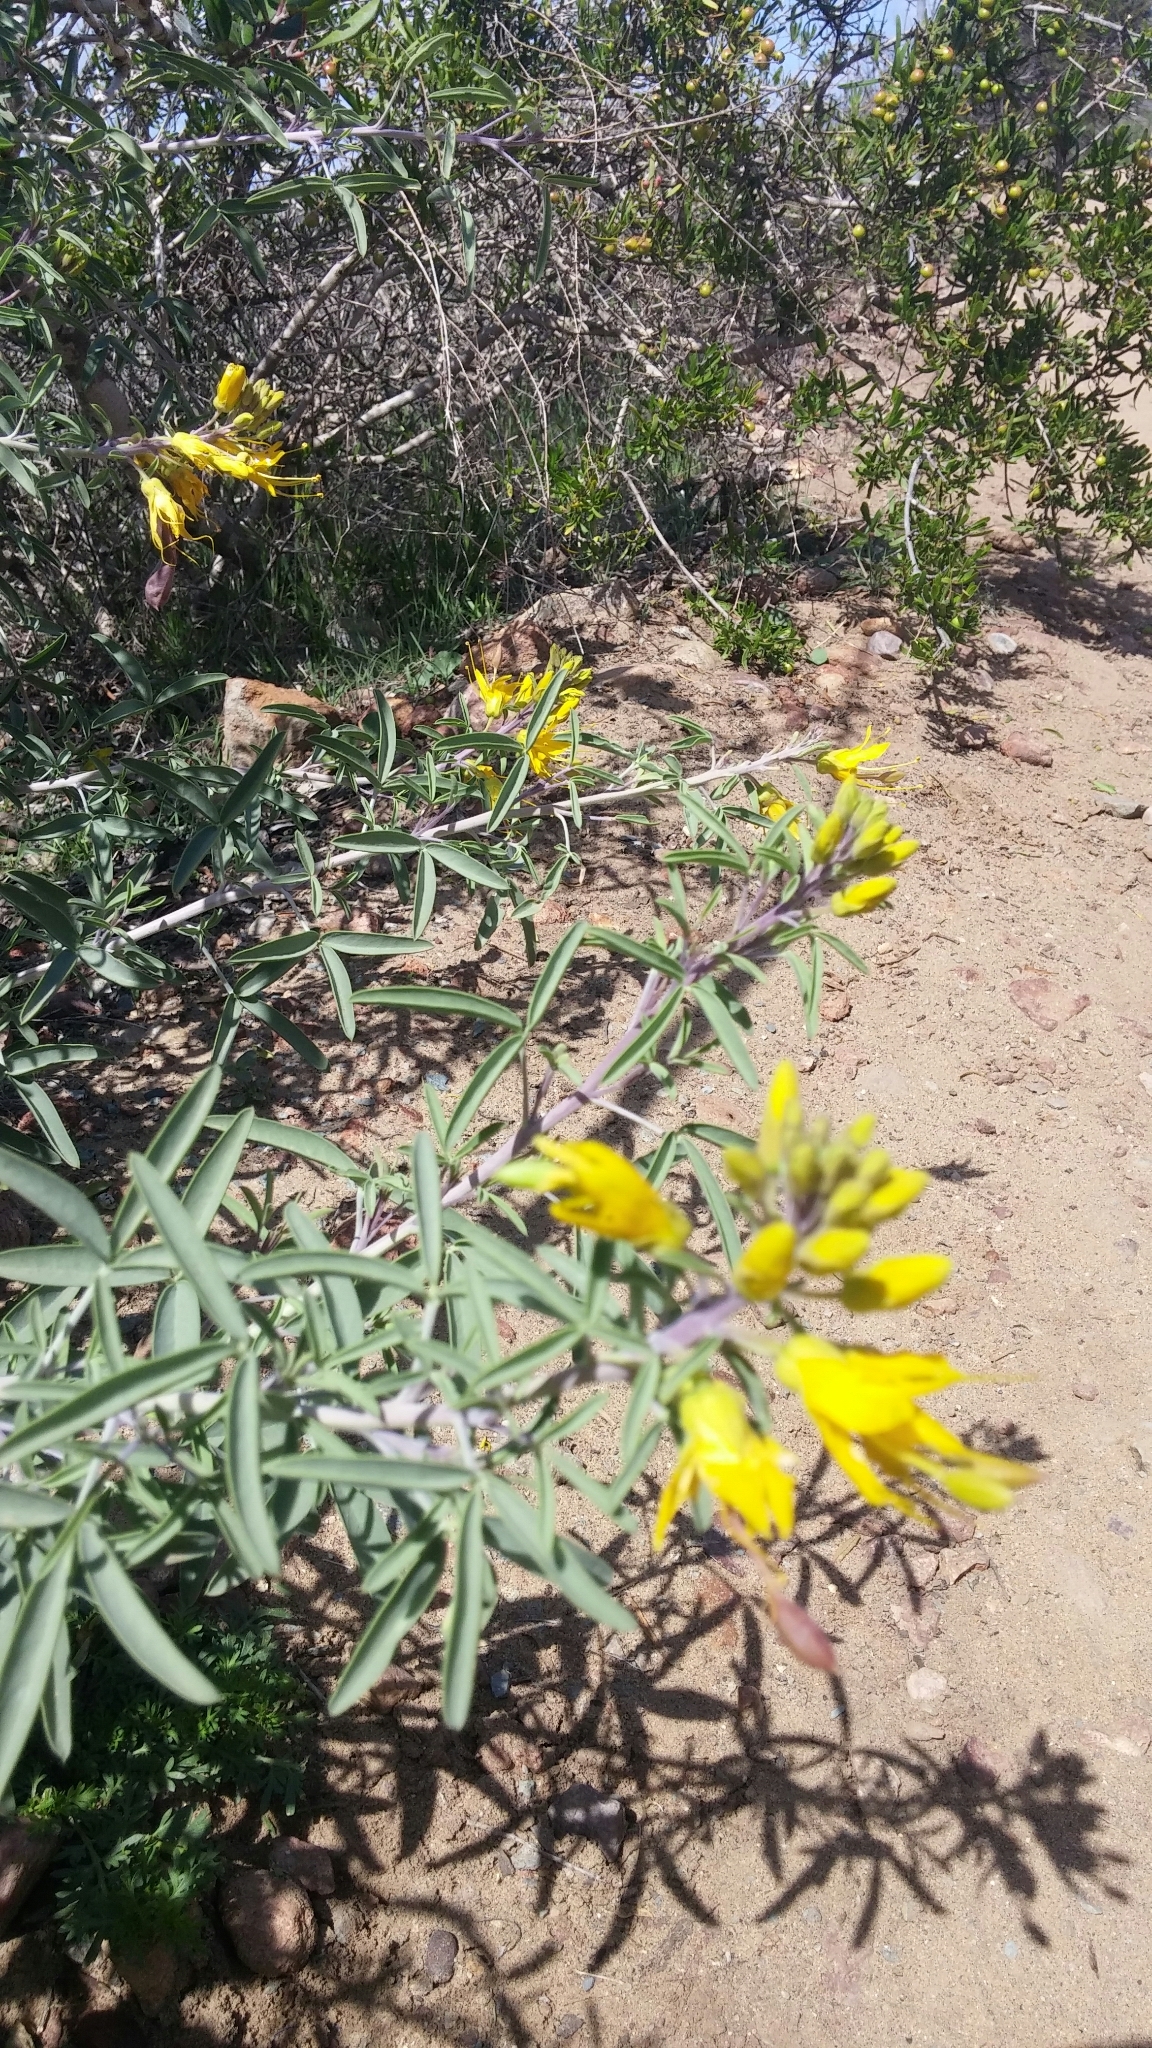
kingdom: Plantae
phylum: Tracheophyta
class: Magnoliopsida
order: Brassicales
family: Cleomaceae
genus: Cleomella
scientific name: Cleomella arborea
